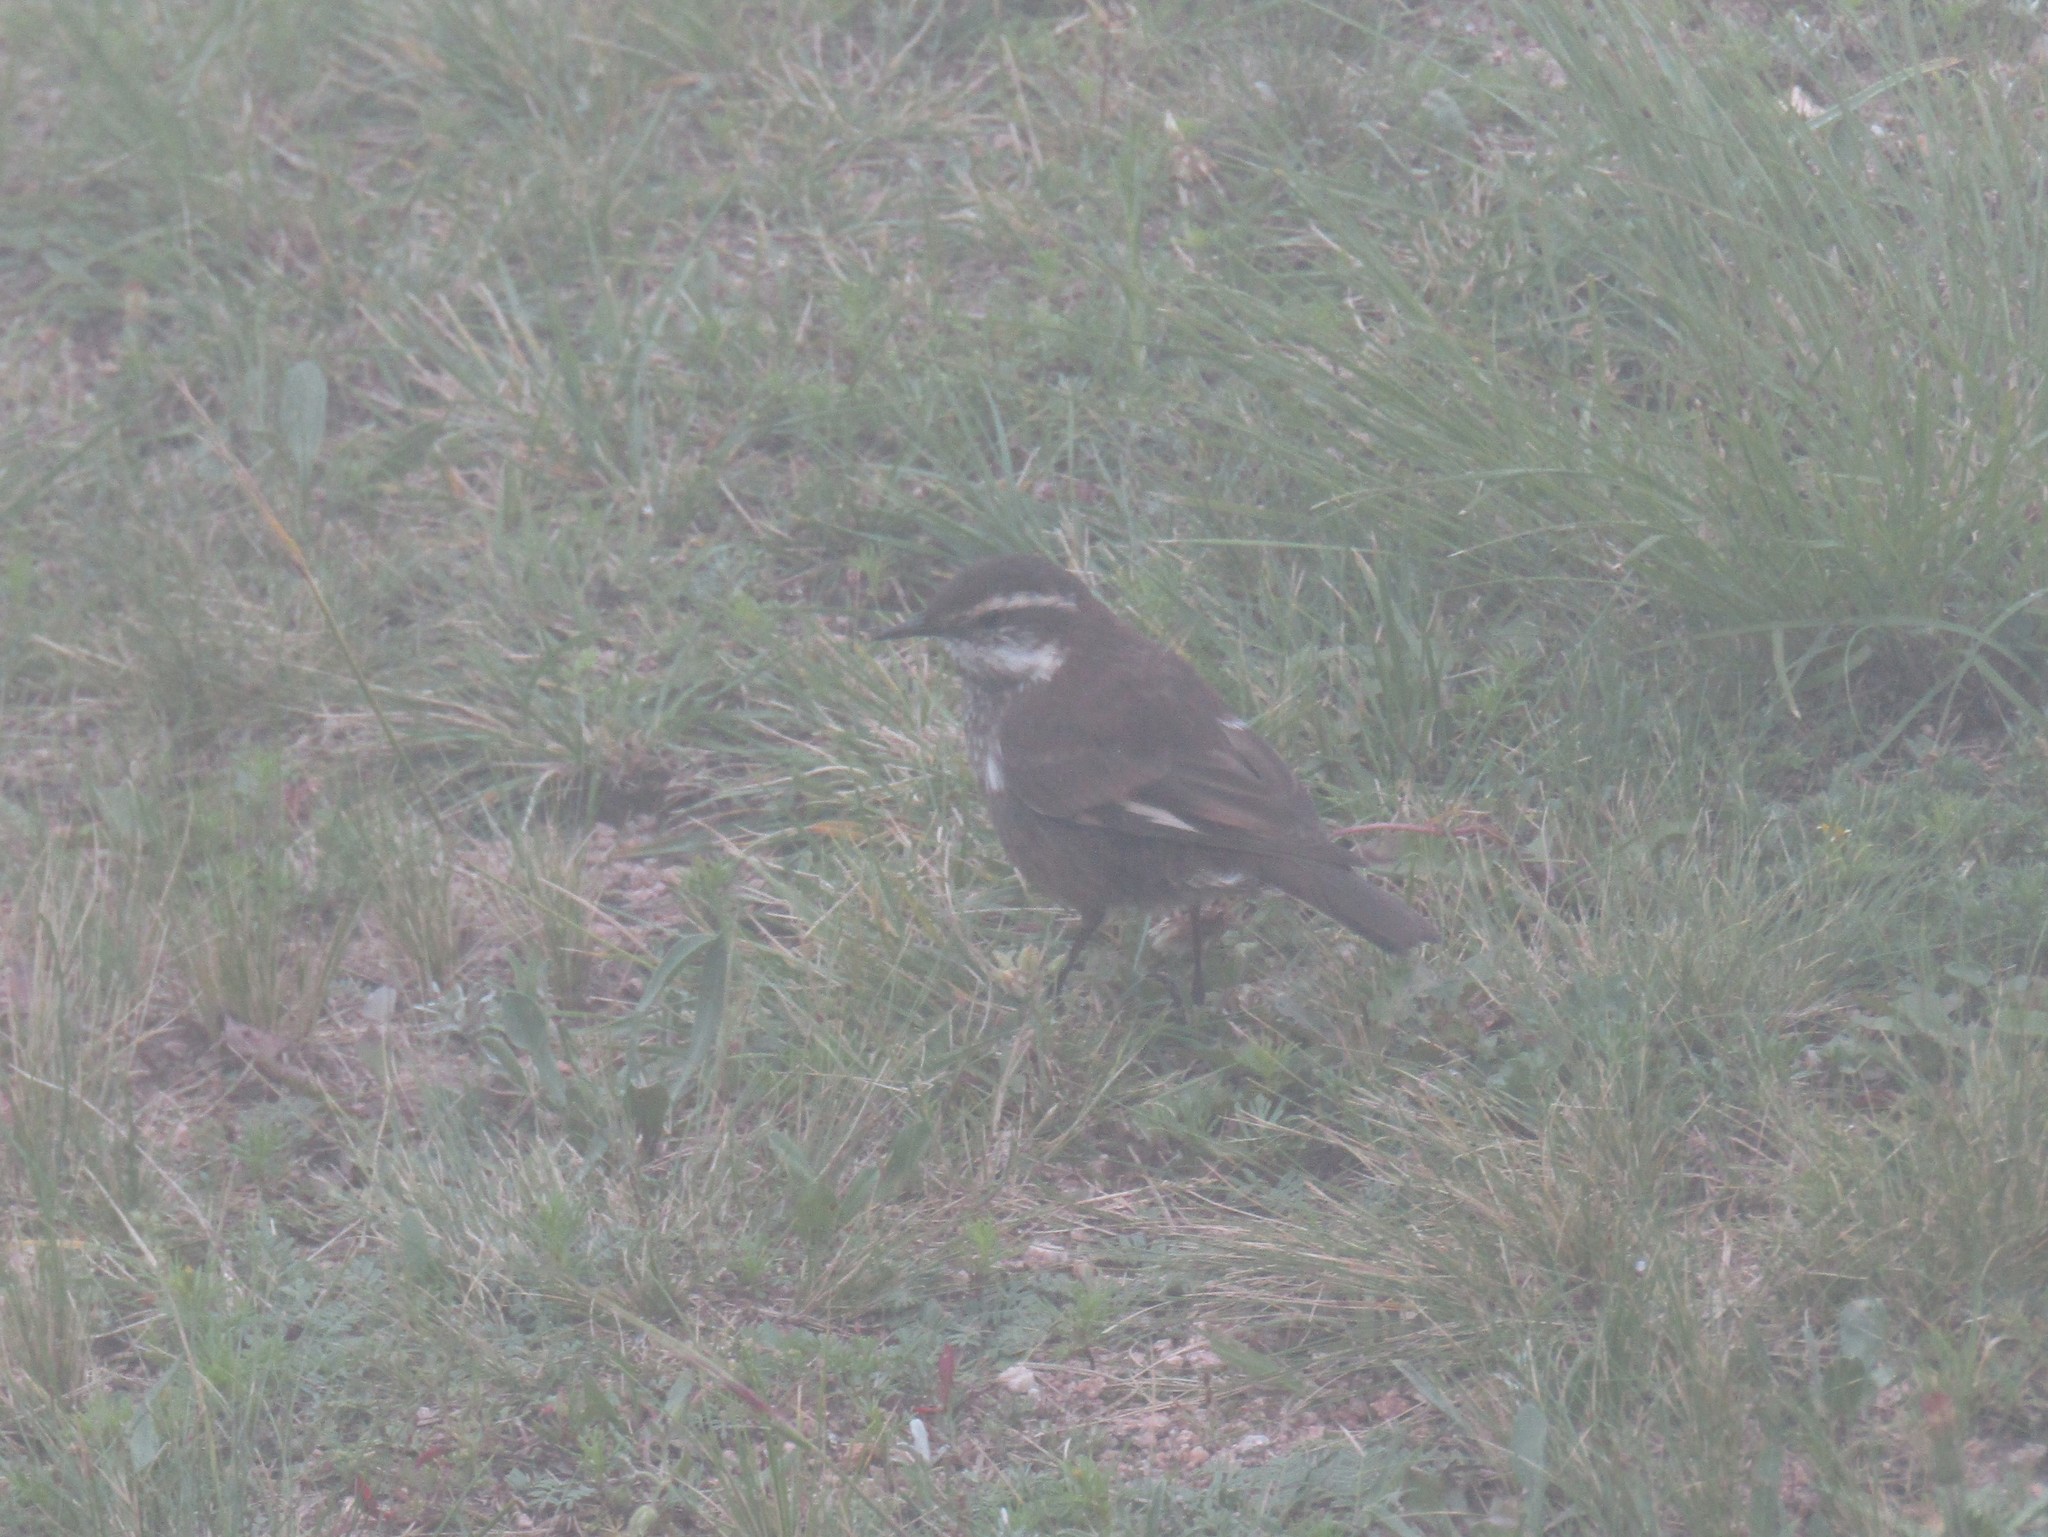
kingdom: Animalia
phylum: Chordata
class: Aves
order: Passeriformes
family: Furnariidae
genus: Cinclodes
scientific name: Cinclodes comechingonus
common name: Cordoba cinclodes
